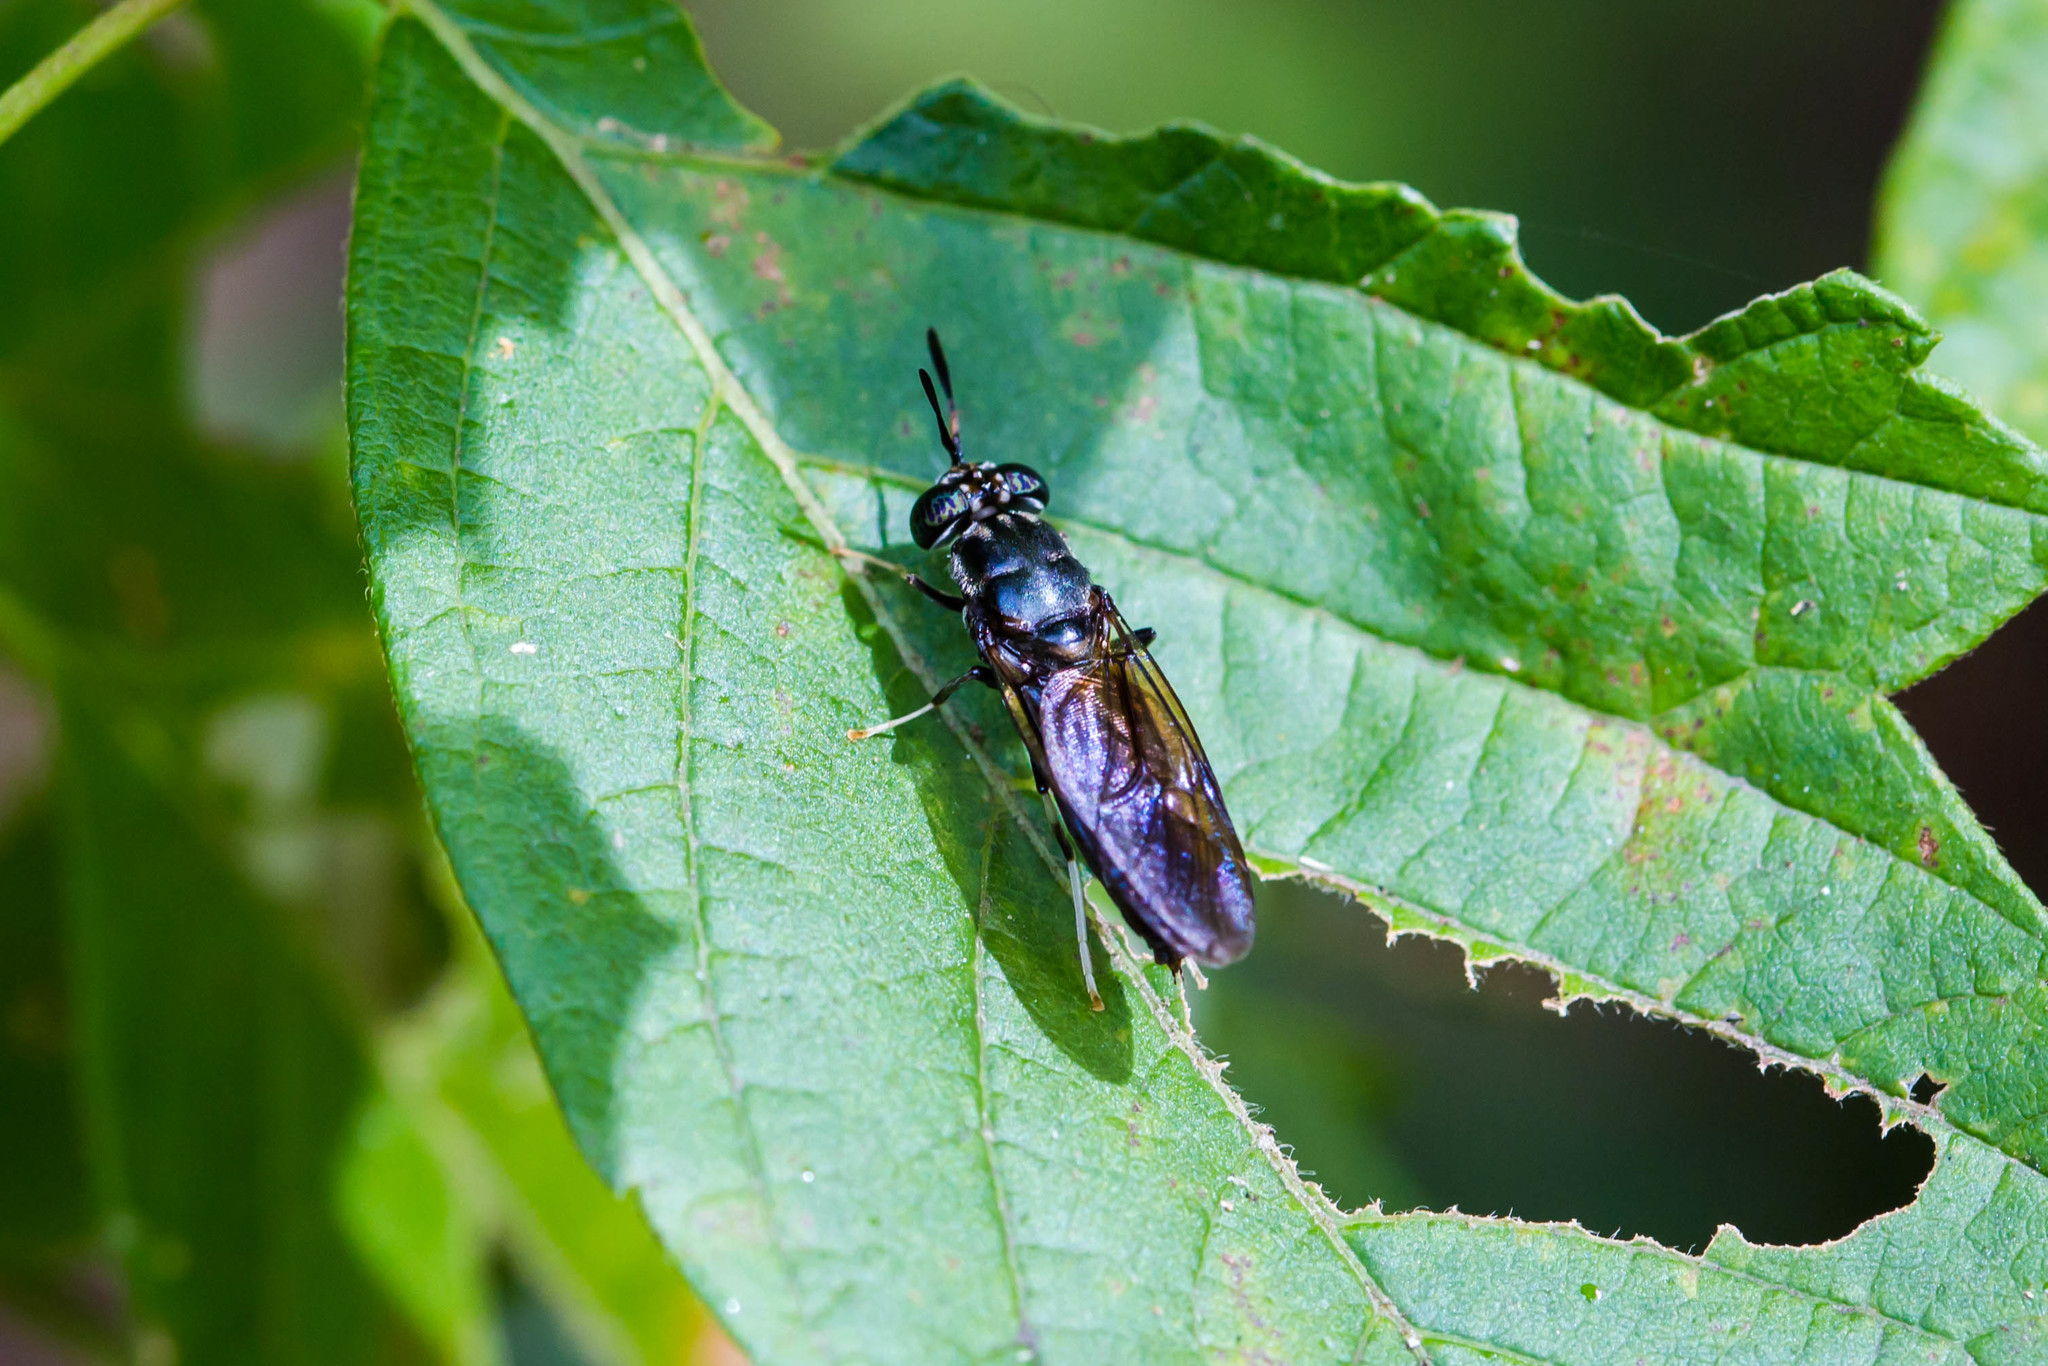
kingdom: Animalia
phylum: Arthropoda
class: Insecta
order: Diptera
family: Stratiomyidae
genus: Hermetia
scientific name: Hermetia illucens
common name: Black soldier fly
